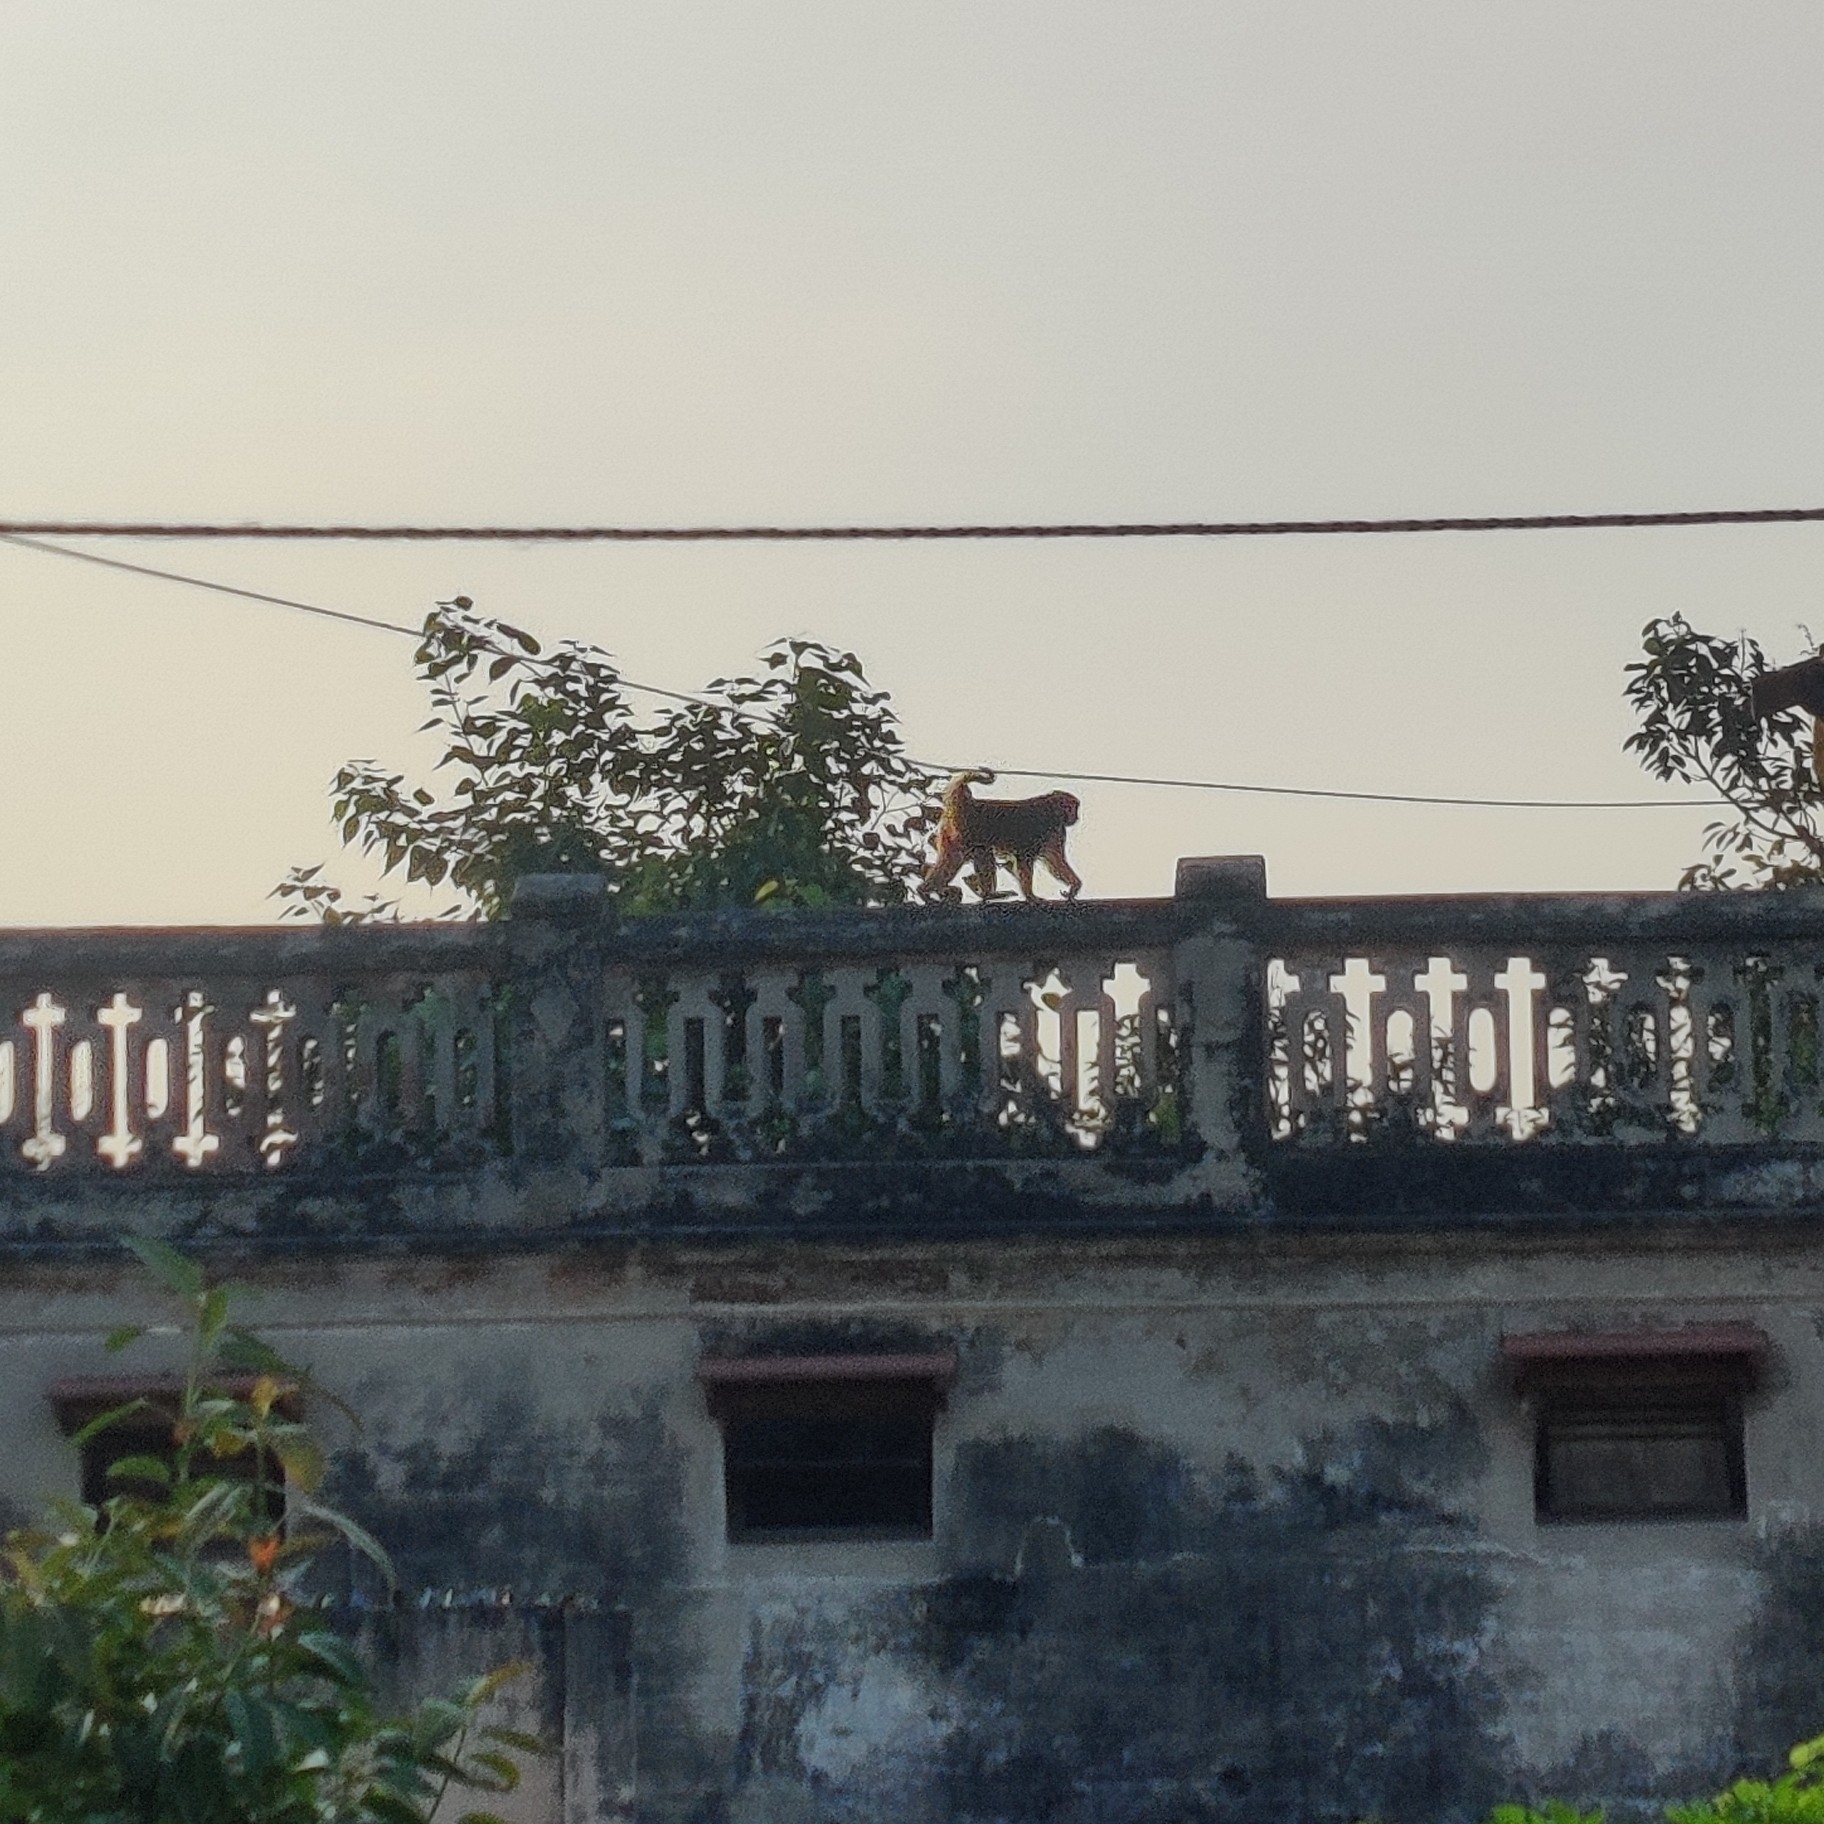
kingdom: Animalia
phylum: Chordata
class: Mammalia
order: Primates
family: Cercopithecidae
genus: Macaca
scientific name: Macaca mulatta
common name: Rhesus monkey
